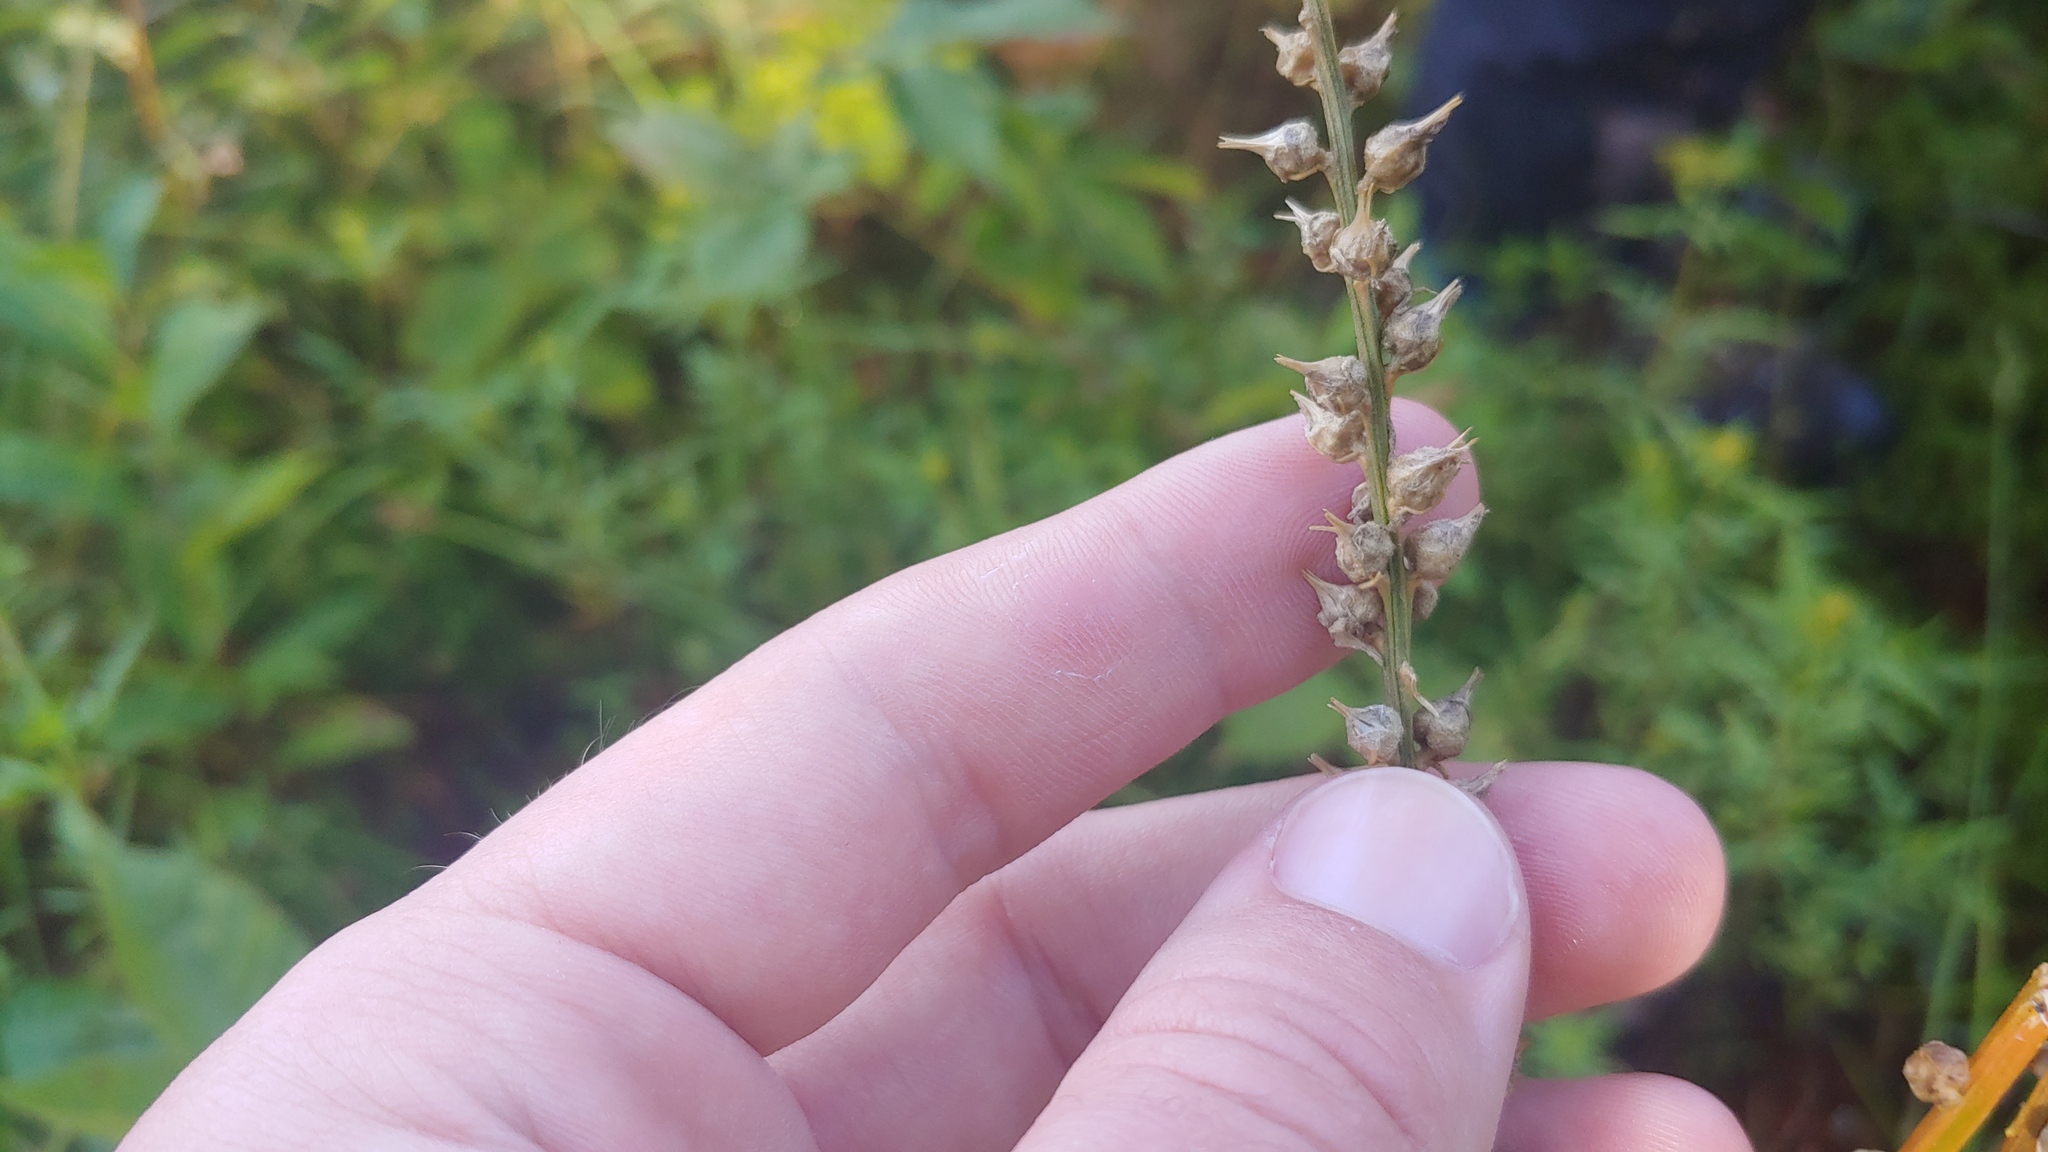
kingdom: Plantae
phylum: Tracheophyta
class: Liliopsida
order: Dioscoreales
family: Nartheciaceae
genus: Aletris
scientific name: Aletris farinosa
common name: Colicroot
